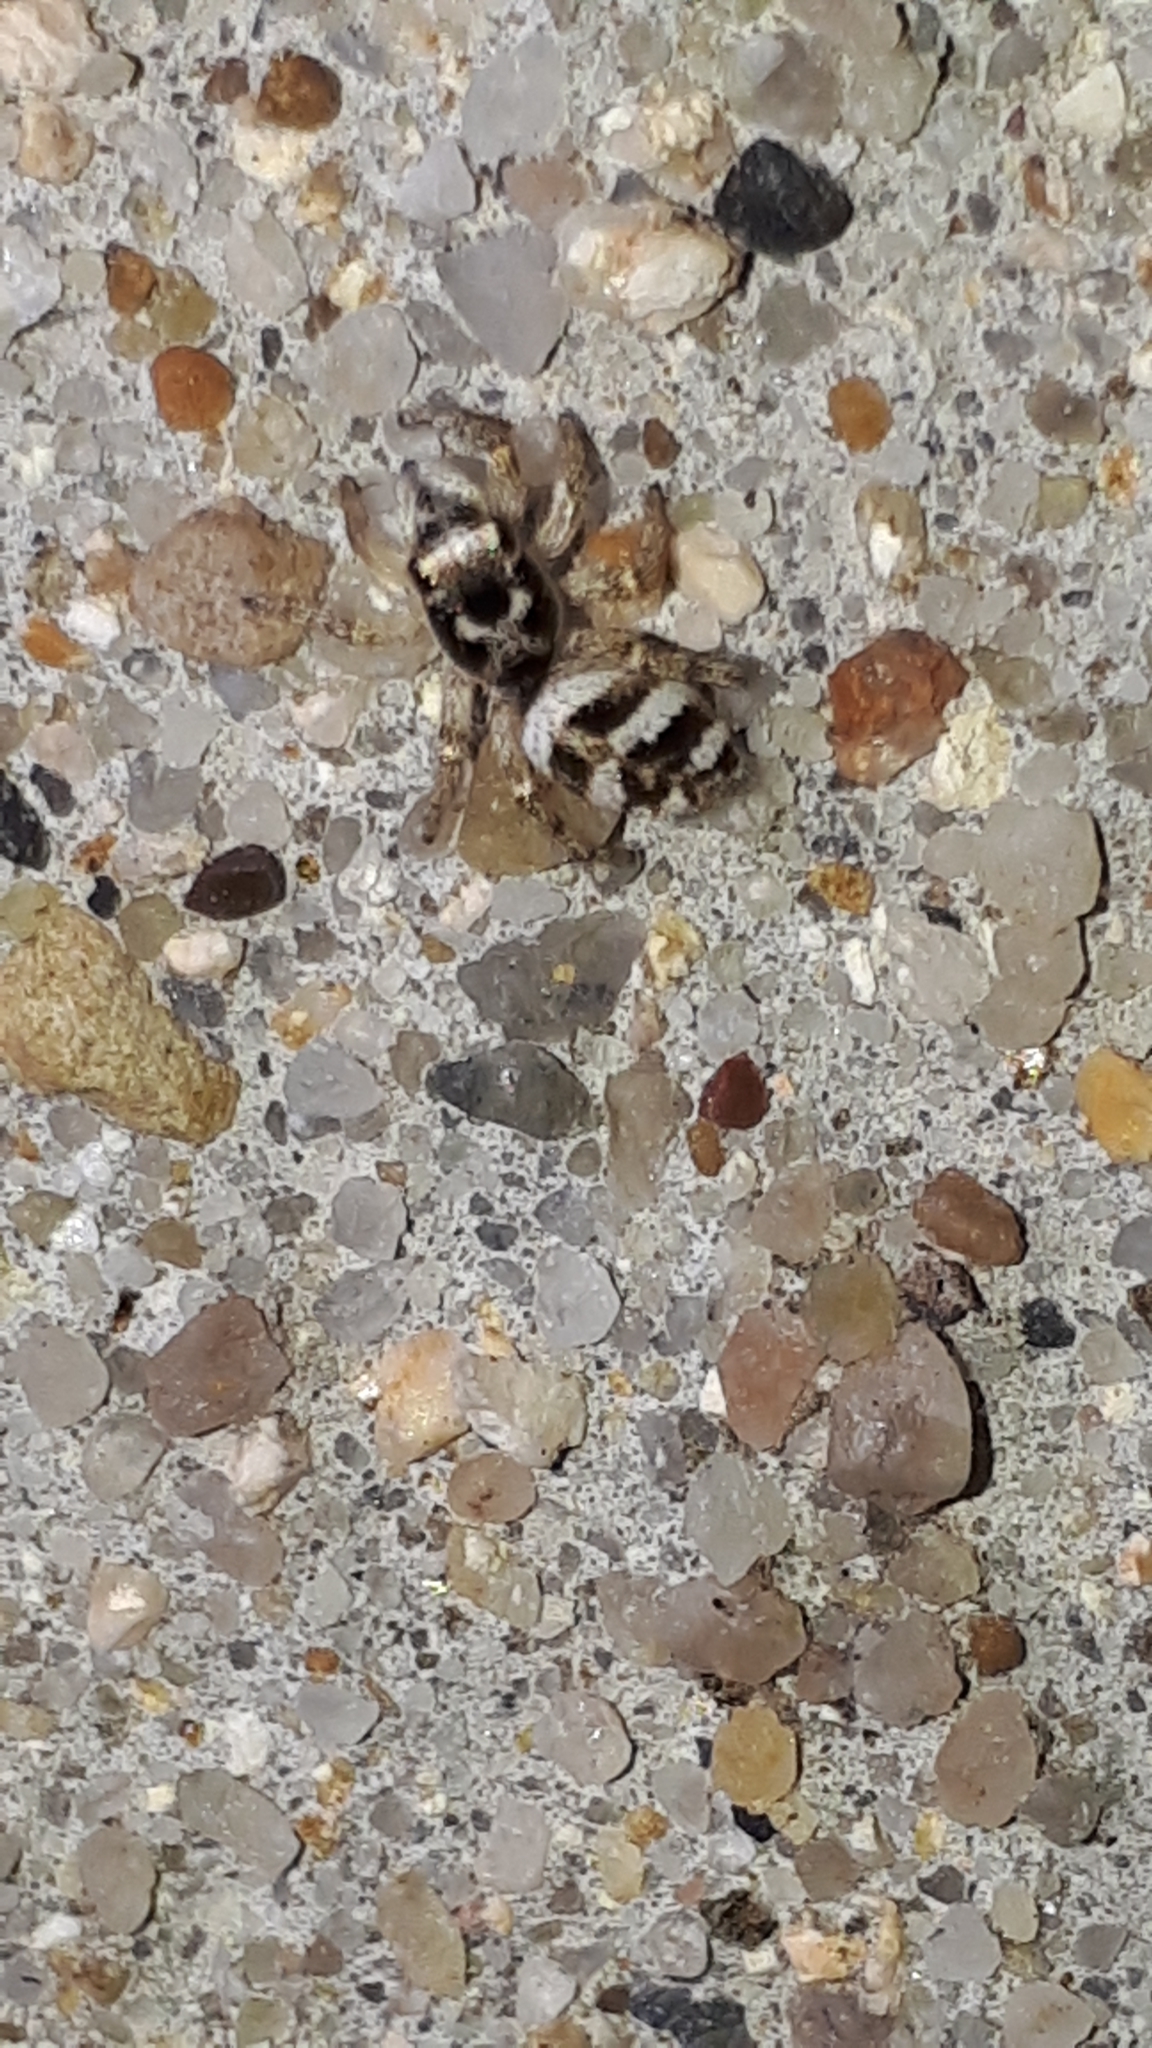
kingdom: Animalia
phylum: Arthropoda
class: Arachnida
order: Araneae
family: Salticidae
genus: Salticus
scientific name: Salticus scenicus
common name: Zebra jumper
